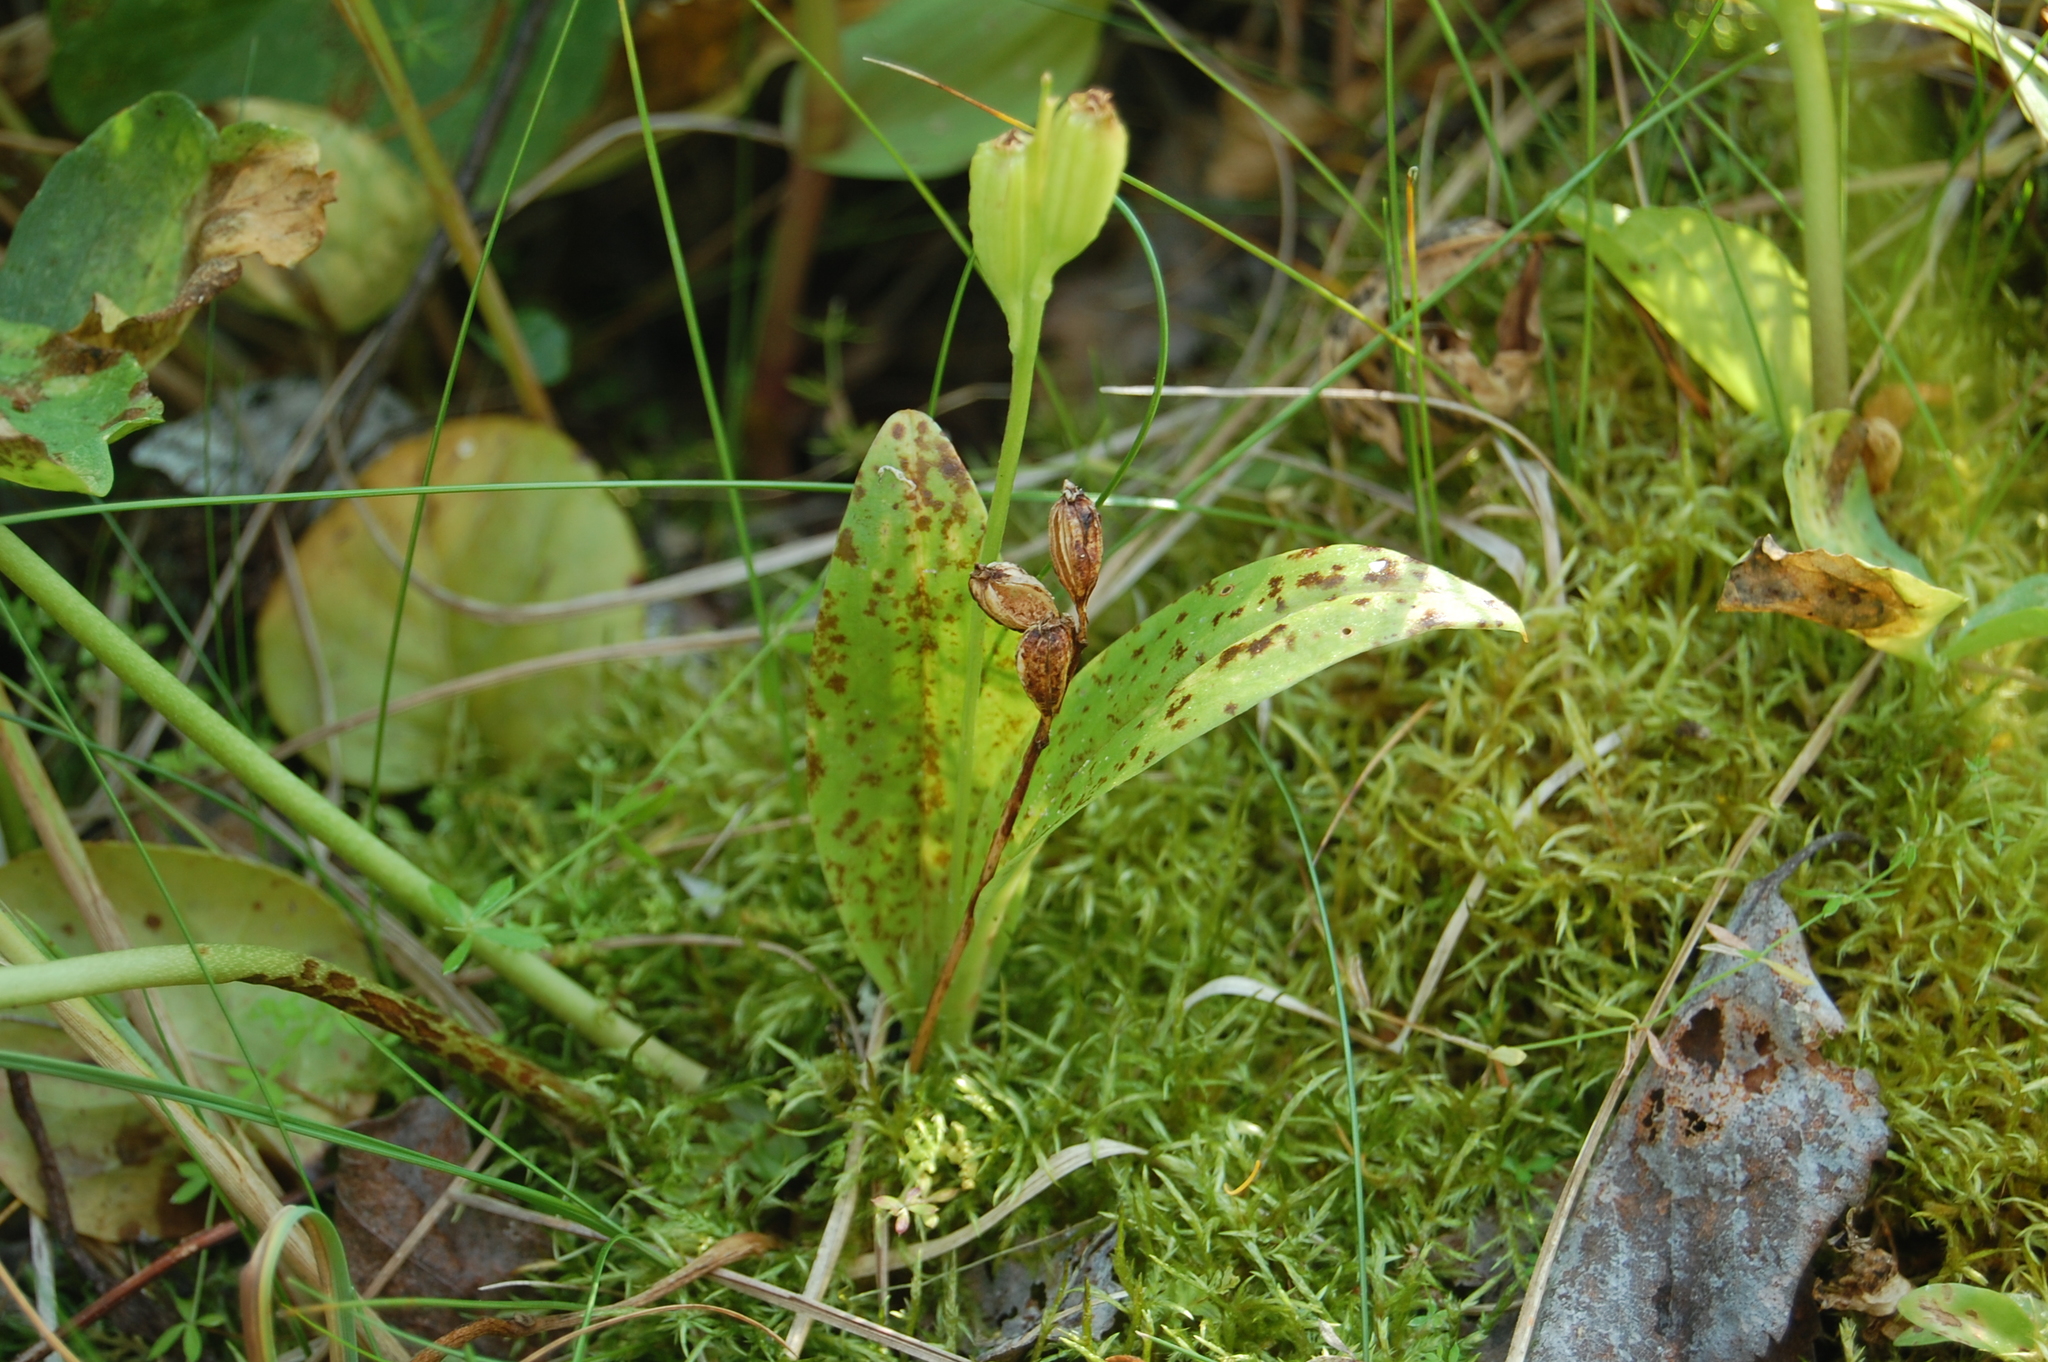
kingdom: Animalia
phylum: Arthropoda
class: Insecta
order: Coleoptera
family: Curculionidae
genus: Liparis
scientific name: Liparis loeselii
